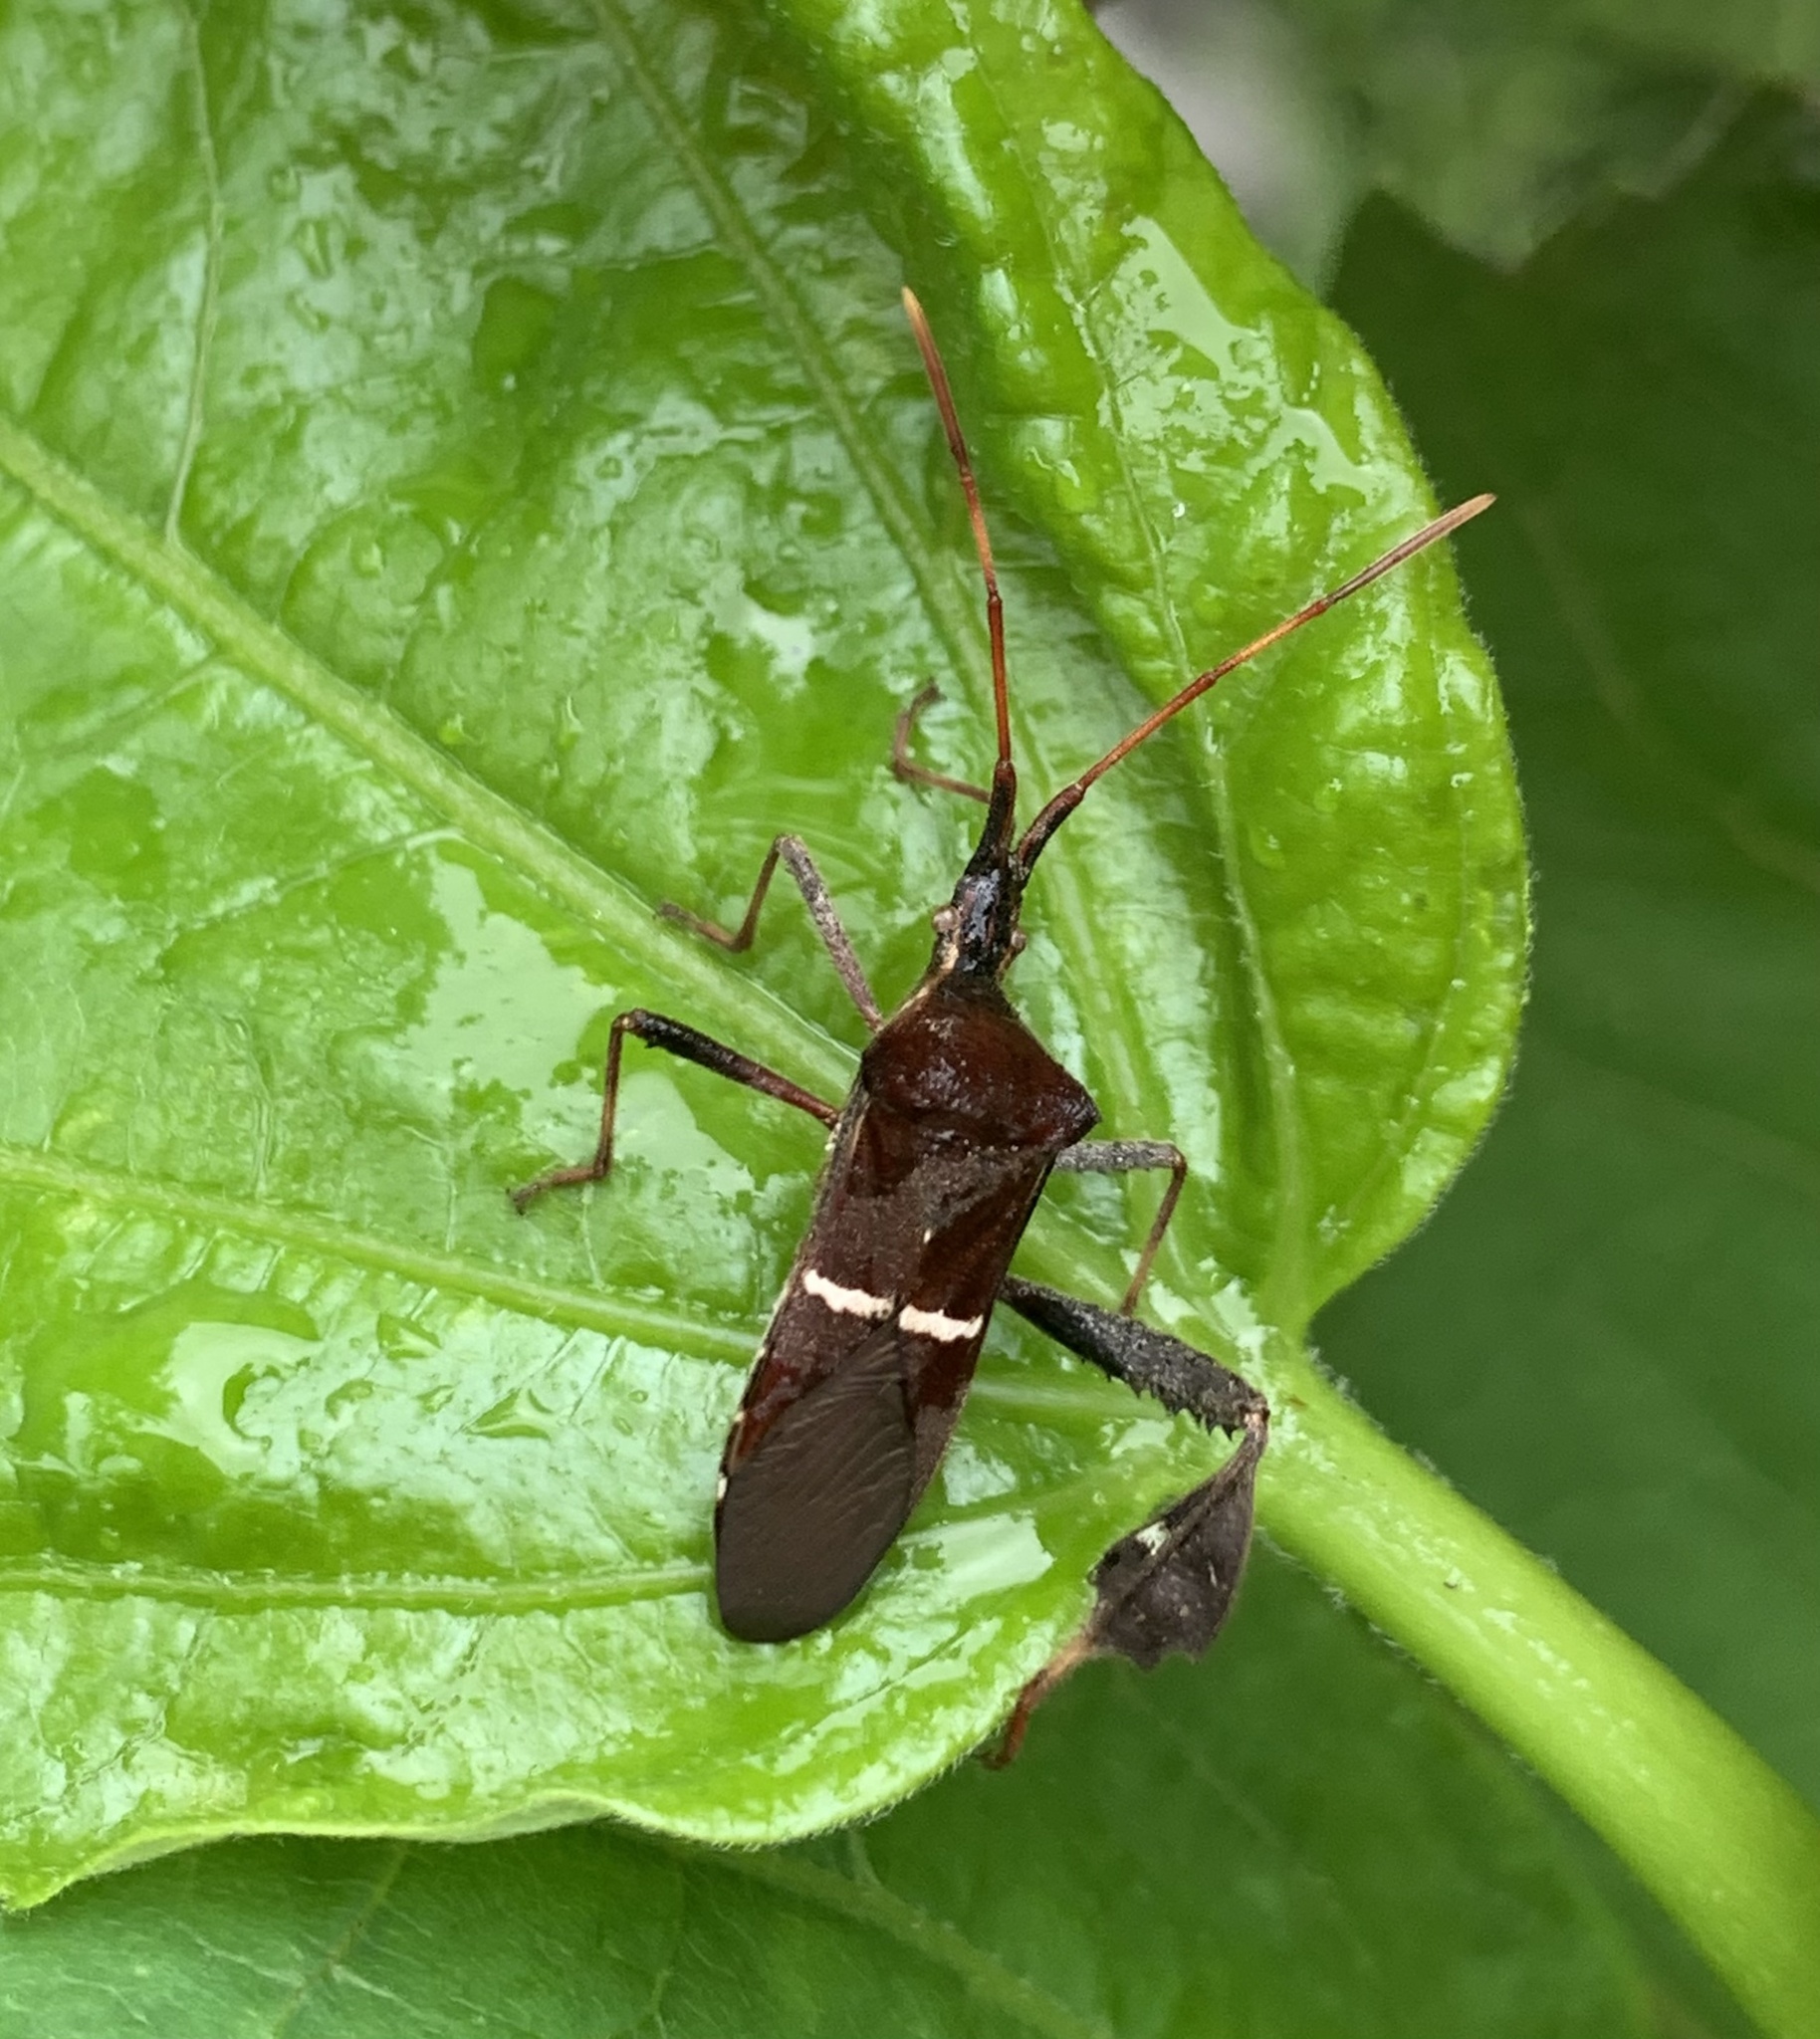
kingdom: Animalia
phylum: Arthropoda
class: Insecta
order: Hemiptera
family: Coreidae
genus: Leptoglossus
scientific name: Leptoglossus phyllopus
